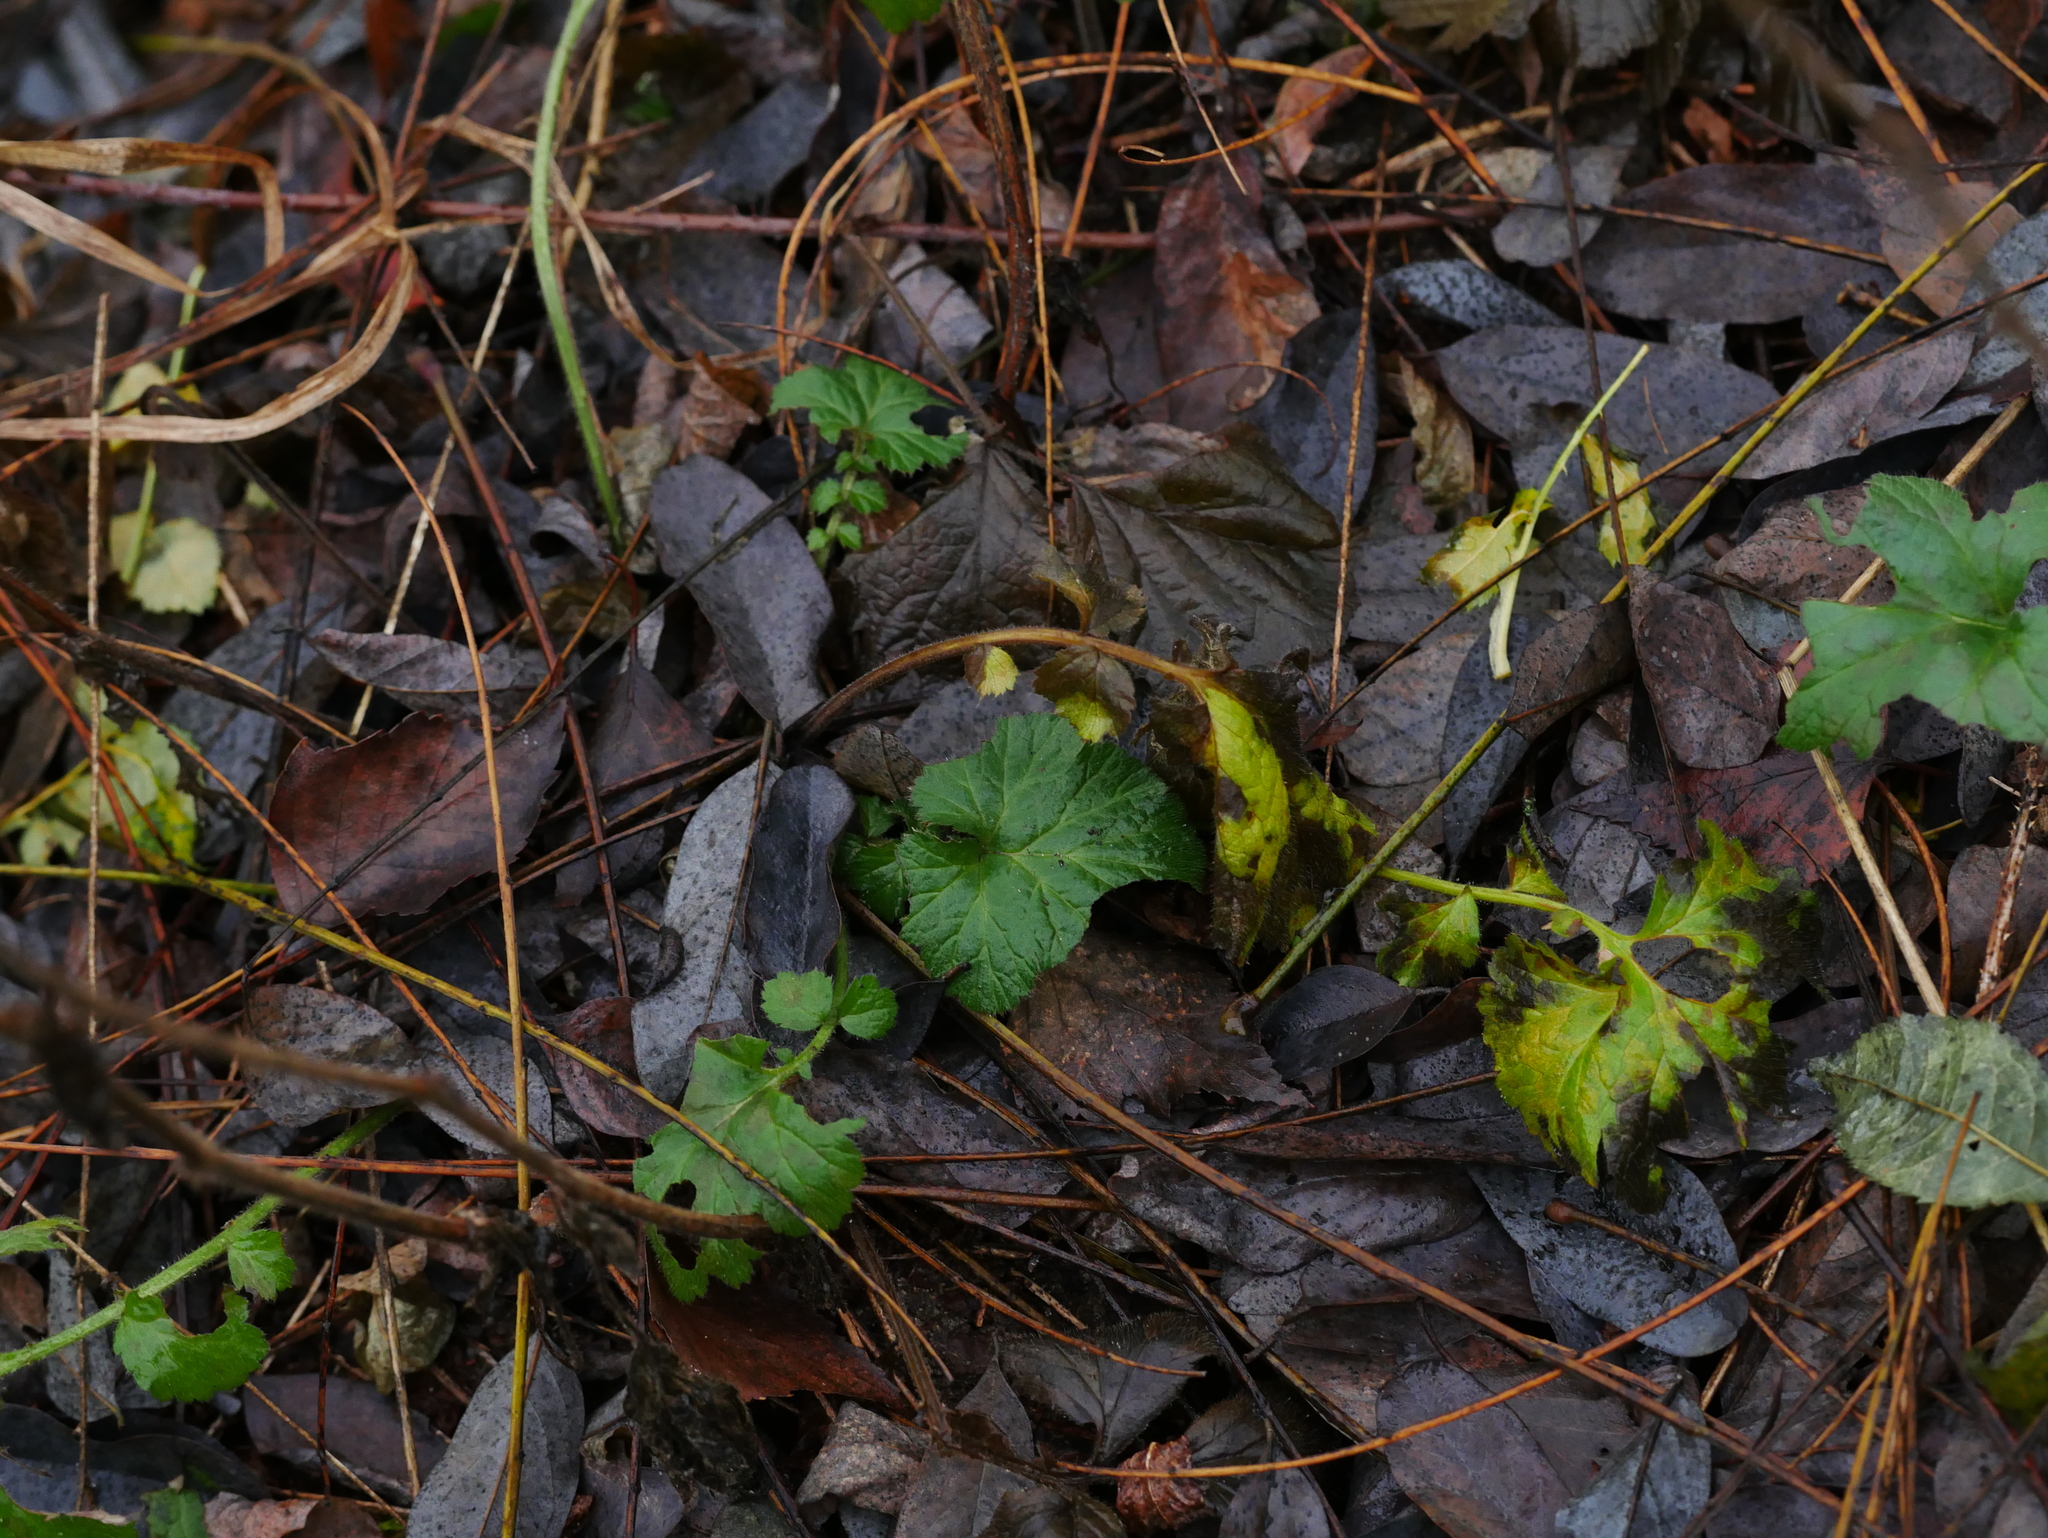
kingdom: Plantae
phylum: Tracheophyta
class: Magnoliopsida
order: Rosales
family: Rosaceae
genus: Geum
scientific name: Geum urbanum
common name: Wood avens
